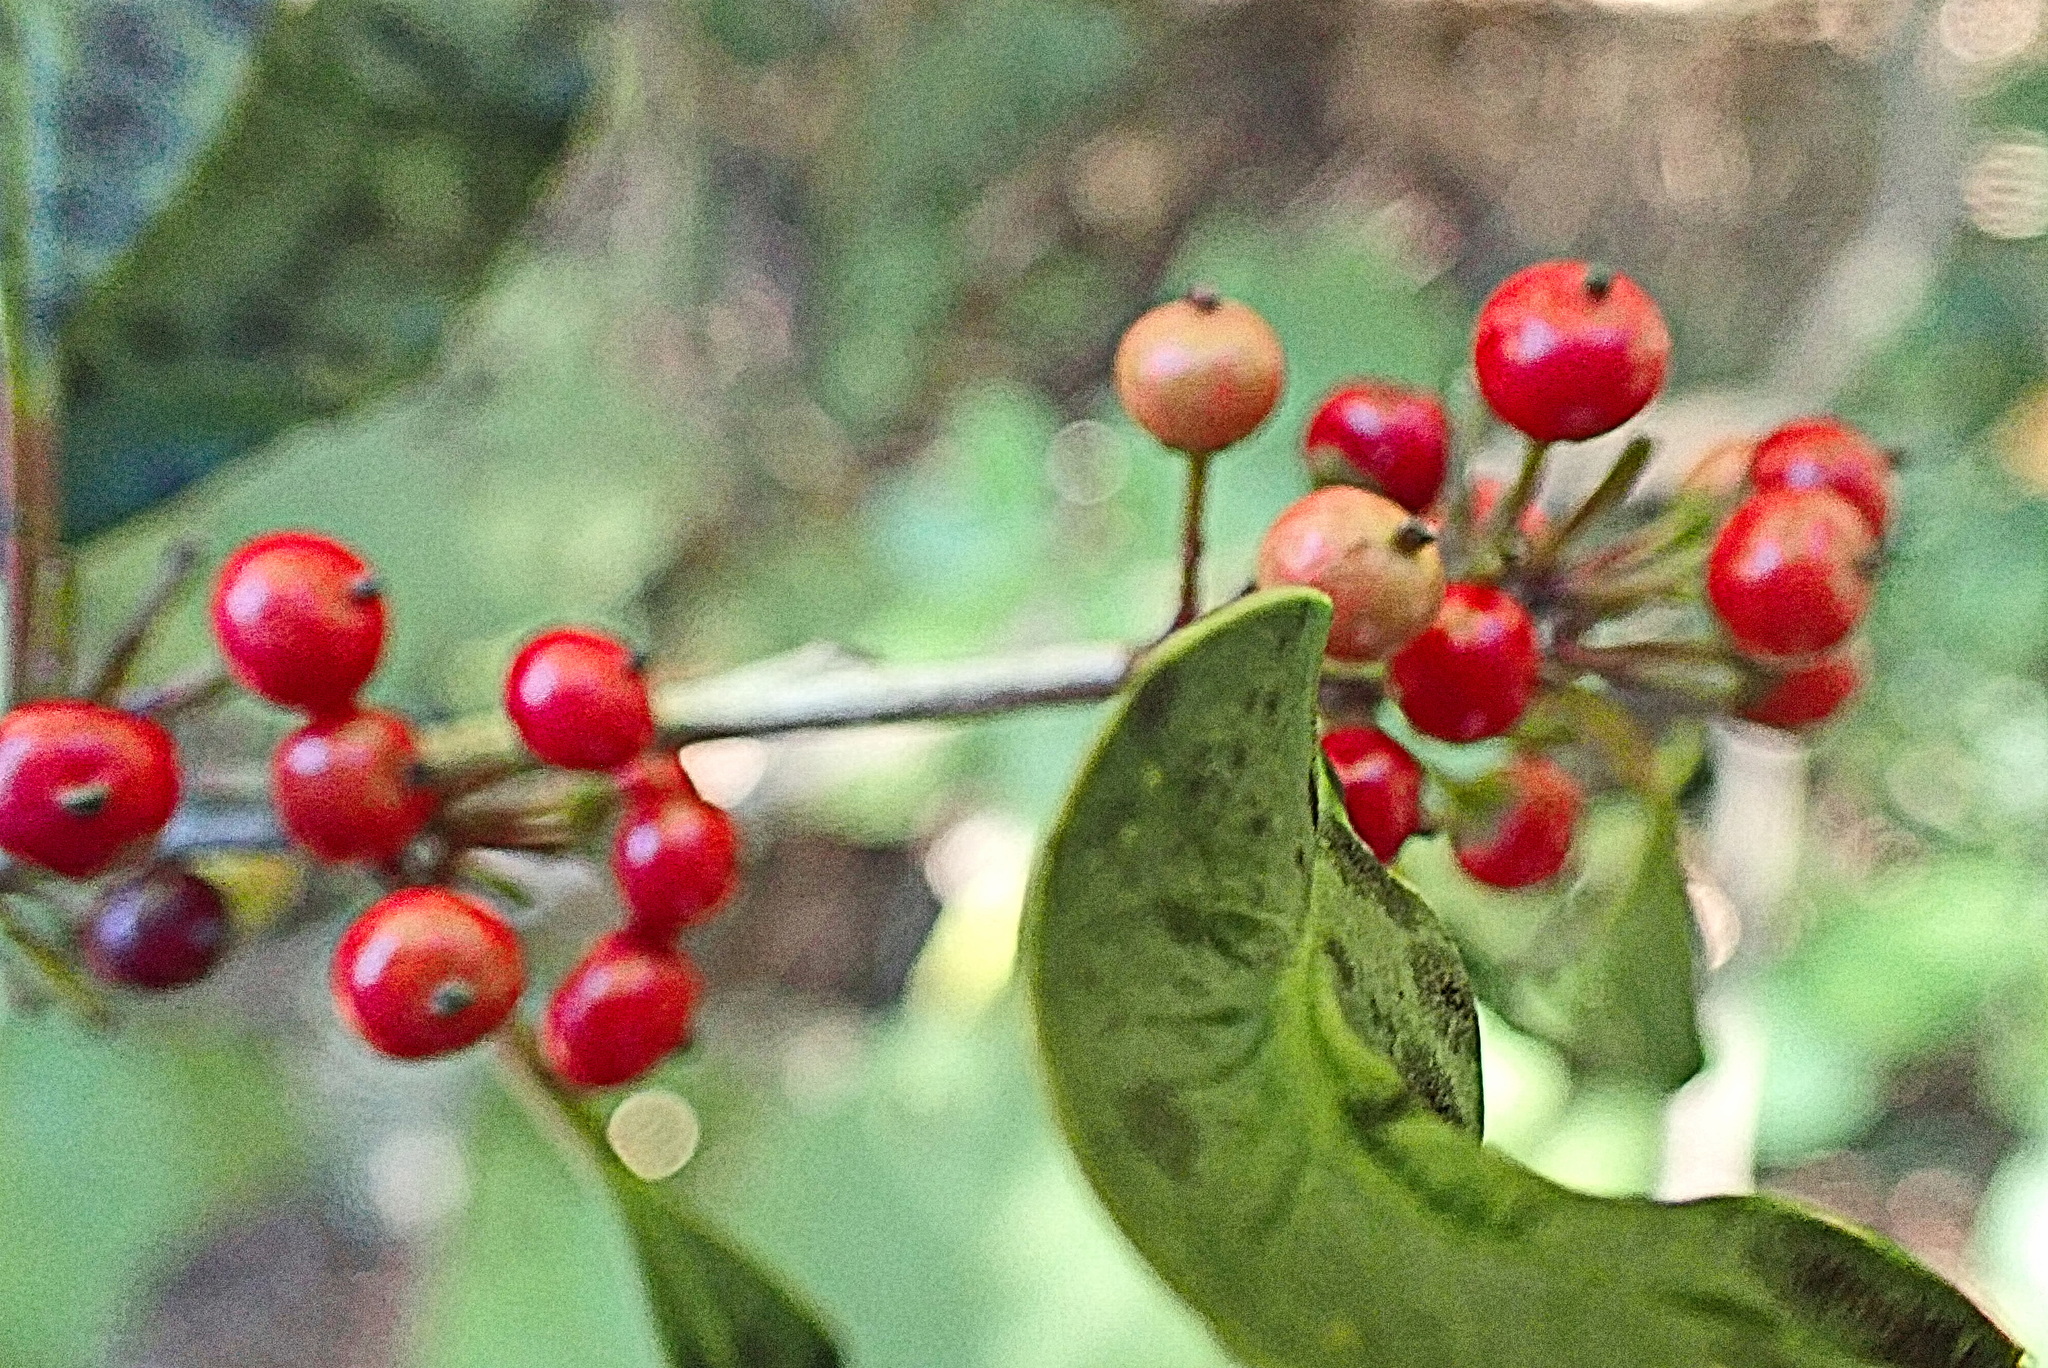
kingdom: Plantae
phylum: Tracheophyta
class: Magnoliopsida
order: Aquifoliales
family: Aquifoliaceae
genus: Ilex
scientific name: Ilex mitis
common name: African holly
